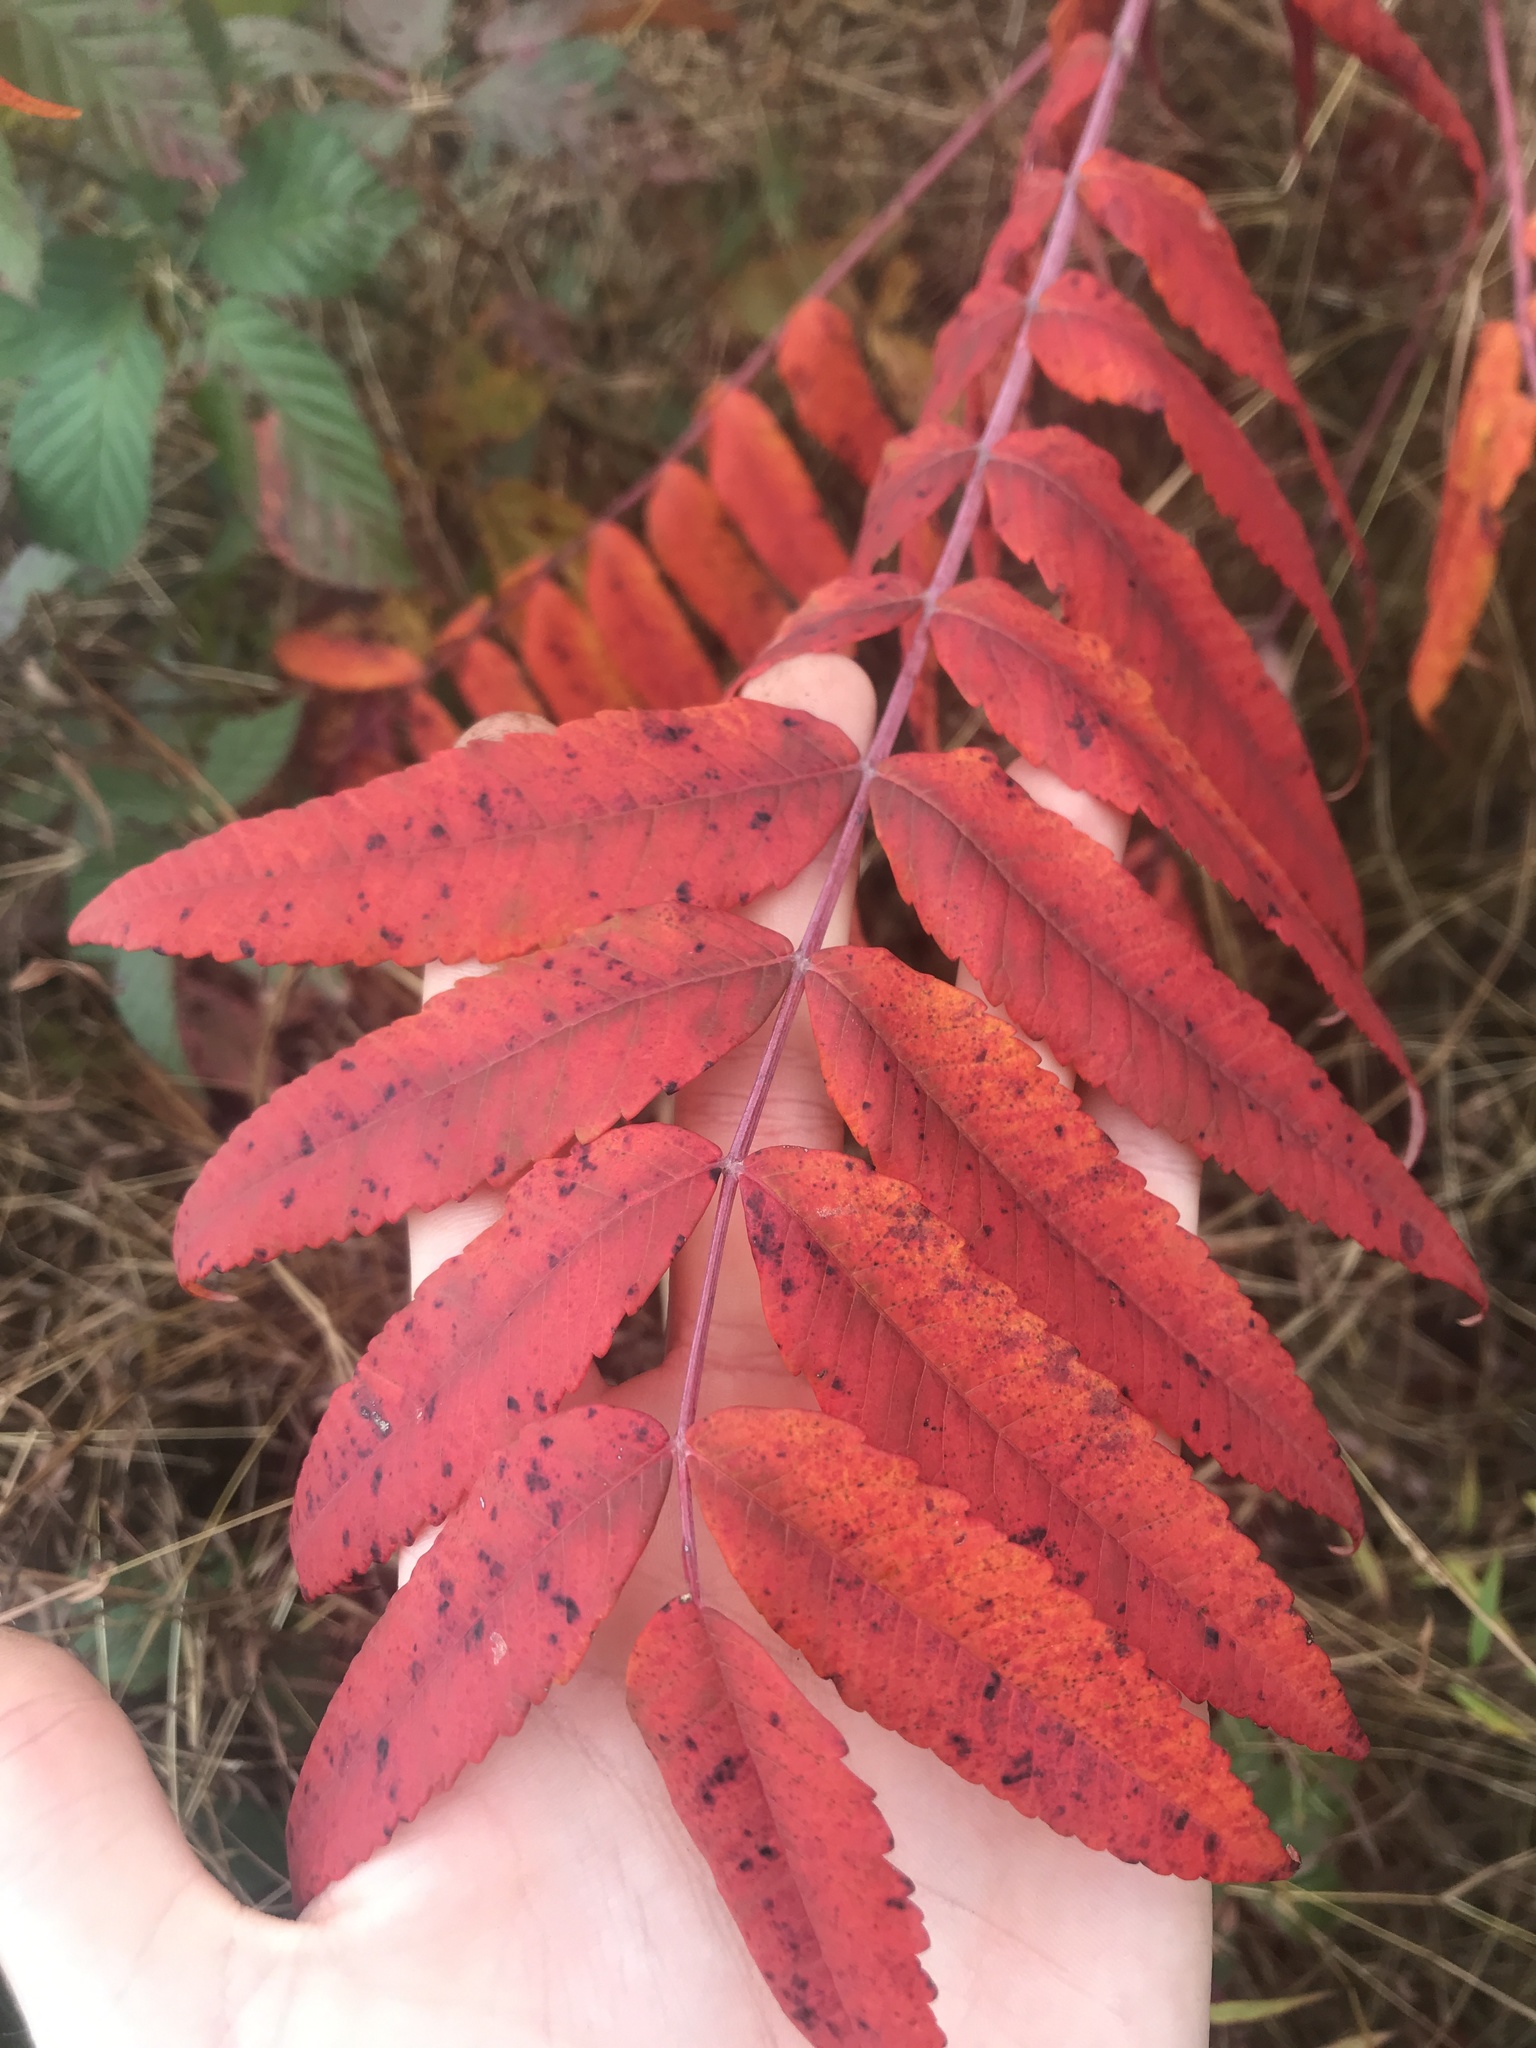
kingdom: Plantae
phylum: Tracheophyta
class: Magnoliopsida
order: Sapindales
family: Anacardiaceae
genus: Rhus
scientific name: Rhus glabra
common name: Scarlet sumac
